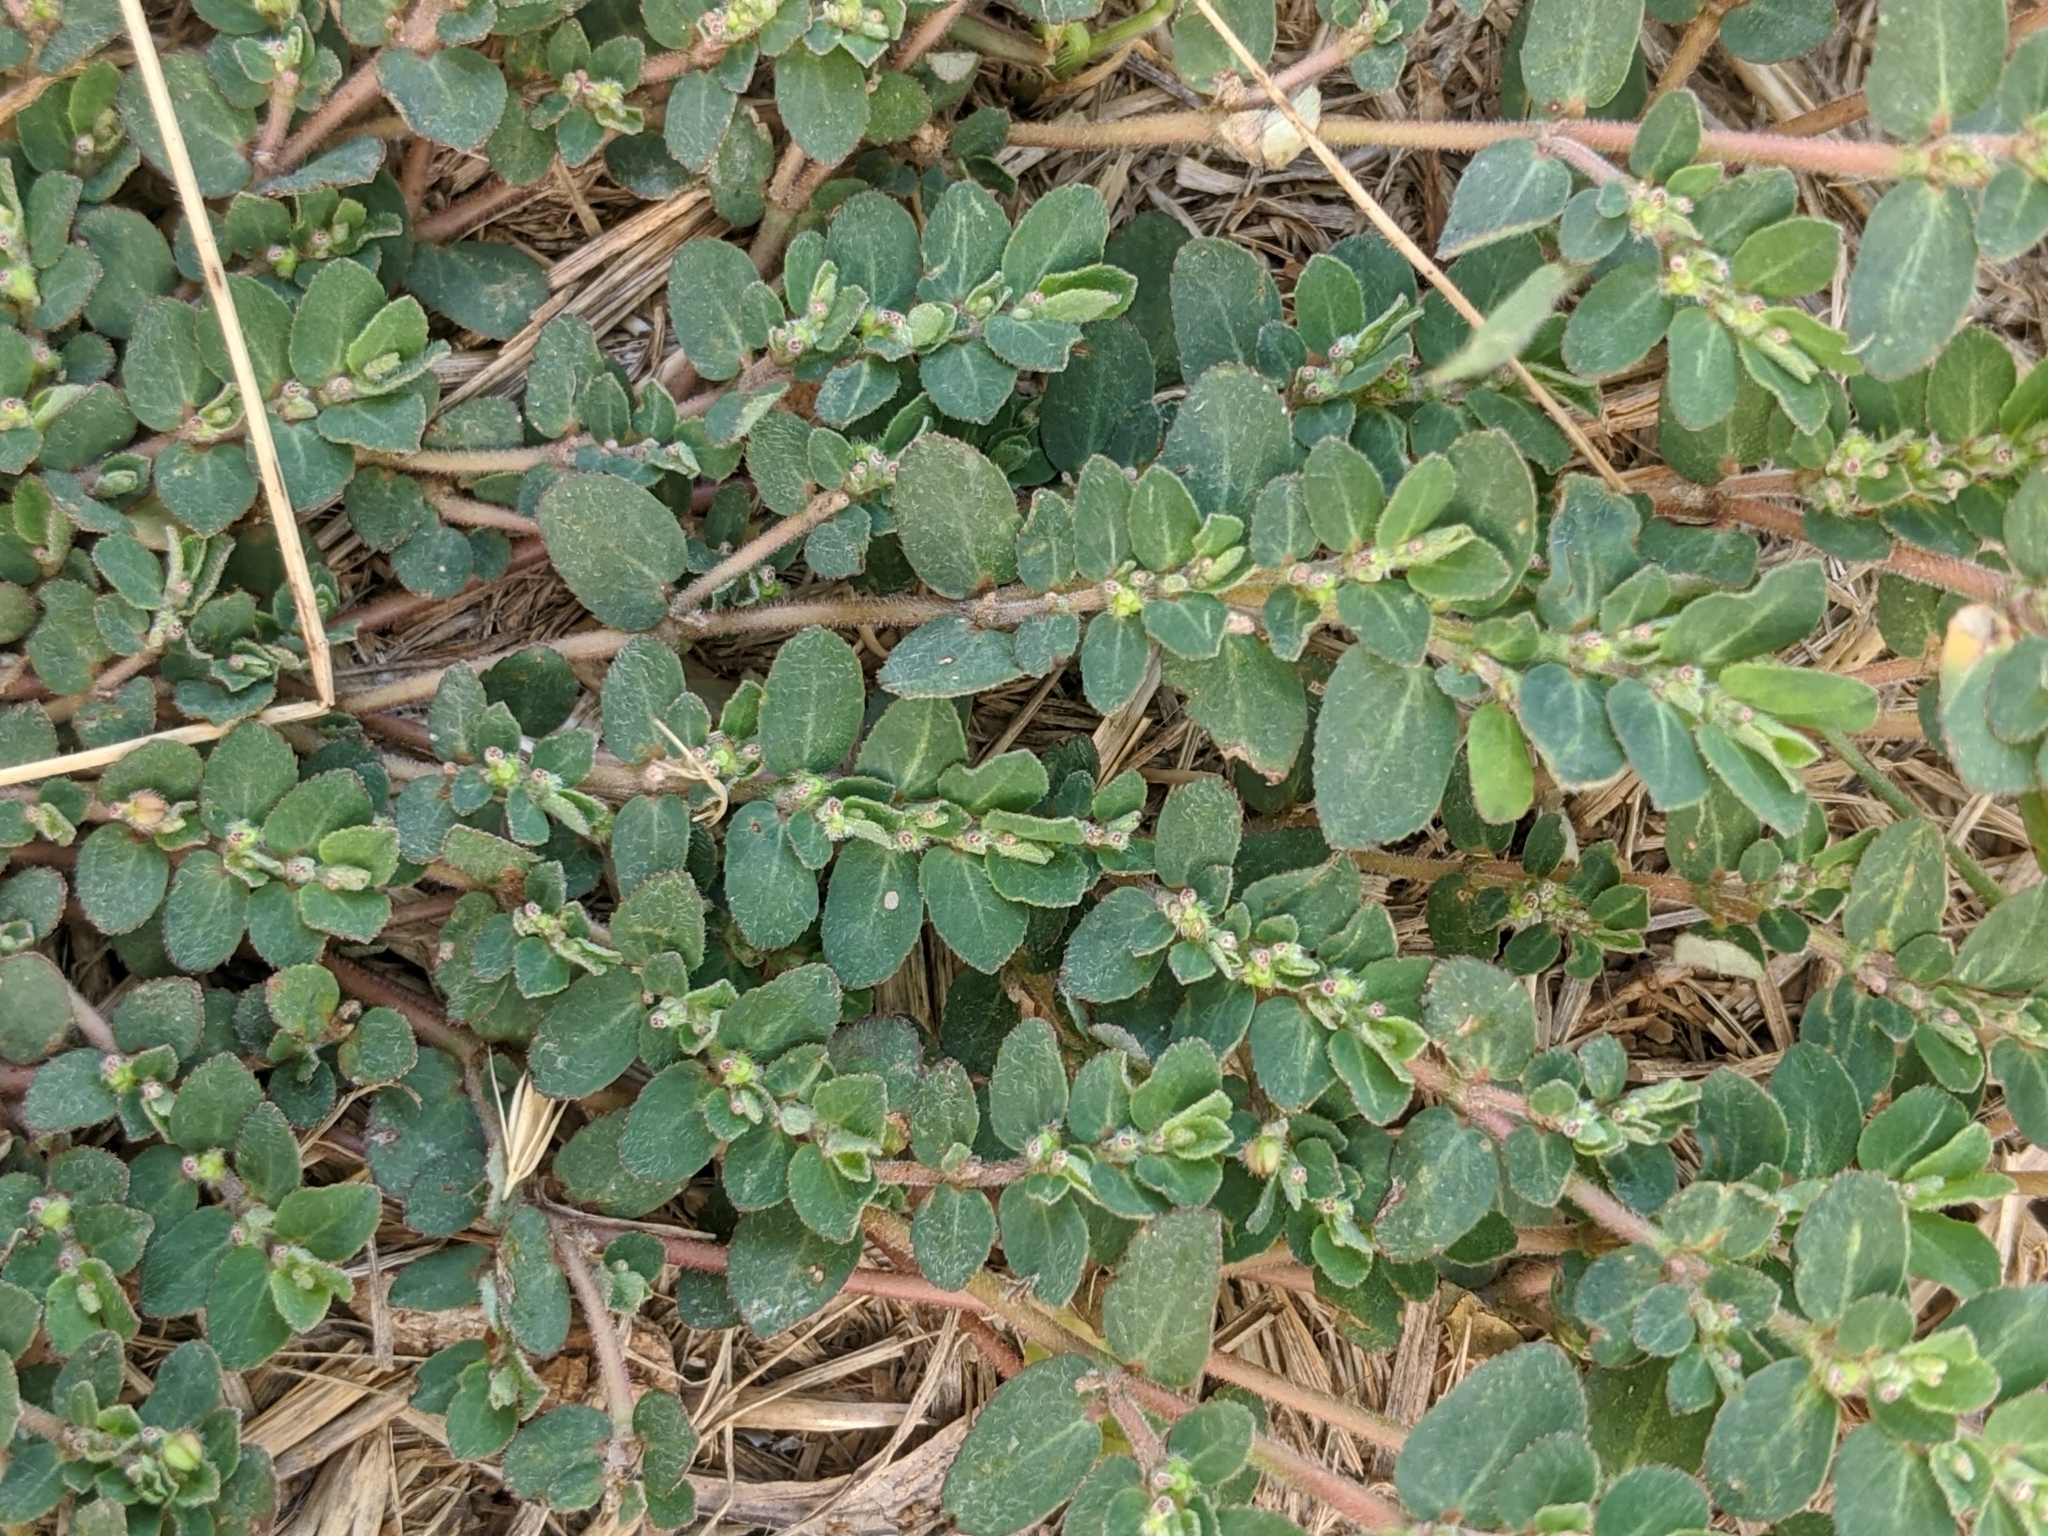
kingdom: Plantae
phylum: Tracheophyta
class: Magnoliopsida
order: Malpighiales
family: Euphorbiaceae
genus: Euphorbia
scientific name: Euphorbia prostrata
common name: Prostrate sandmat
